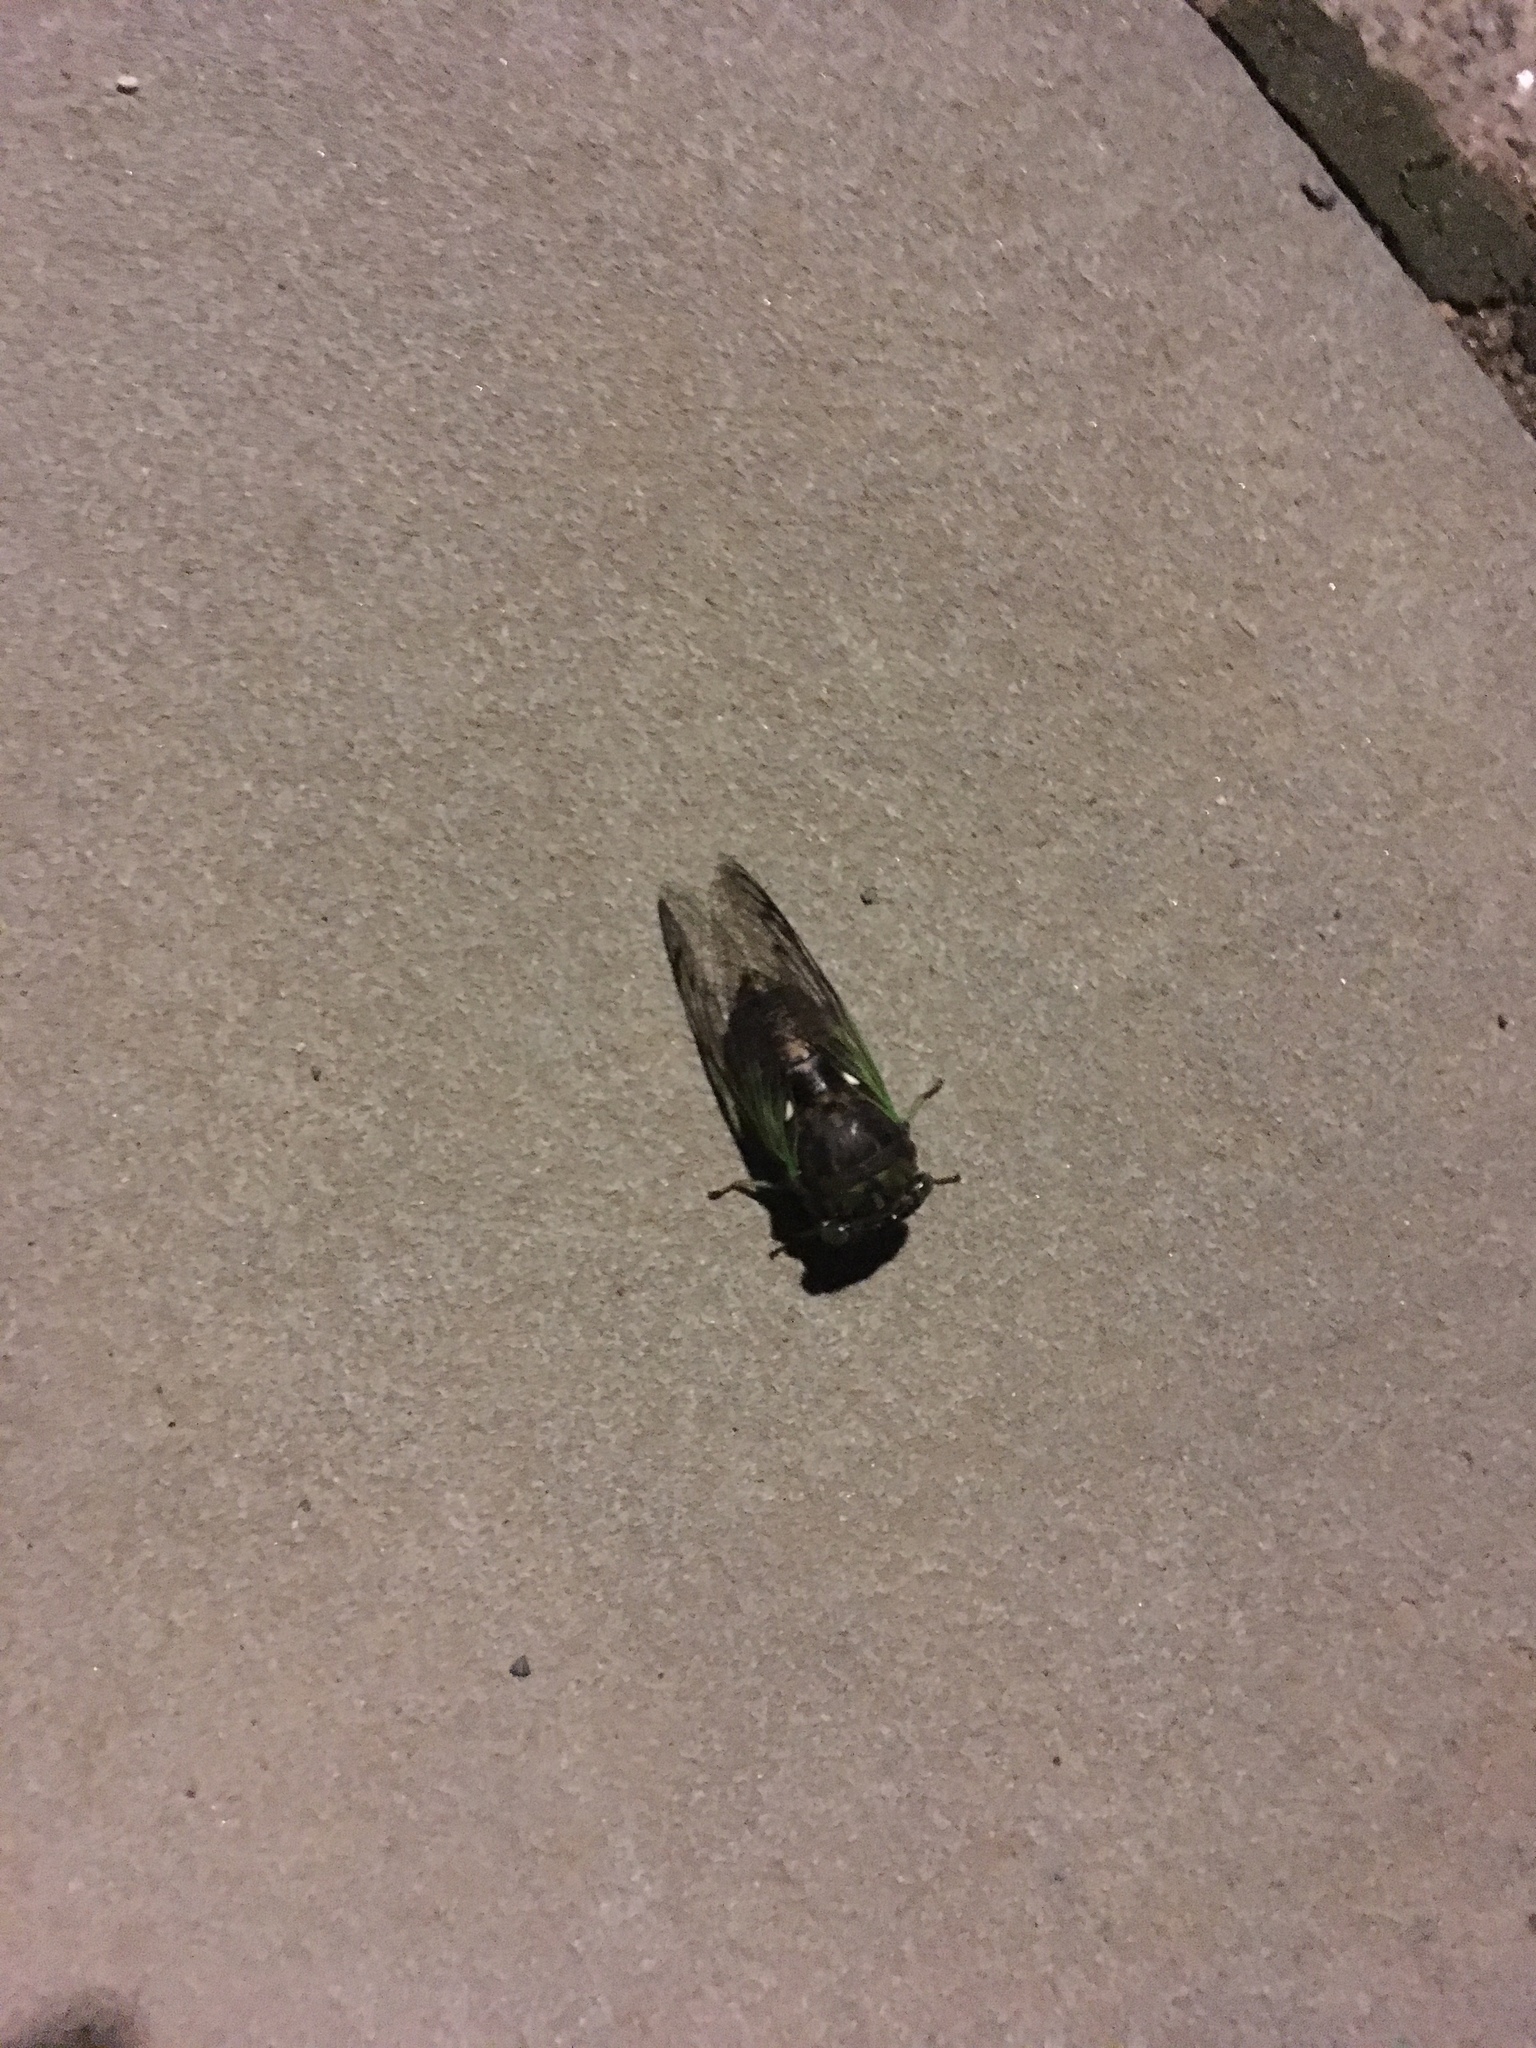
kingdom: Animalia
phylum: Arthropoda
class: Insecta
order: Hemiptera
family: Cicadidae
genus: Neotibicen
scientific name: Neotibicen tibicen
